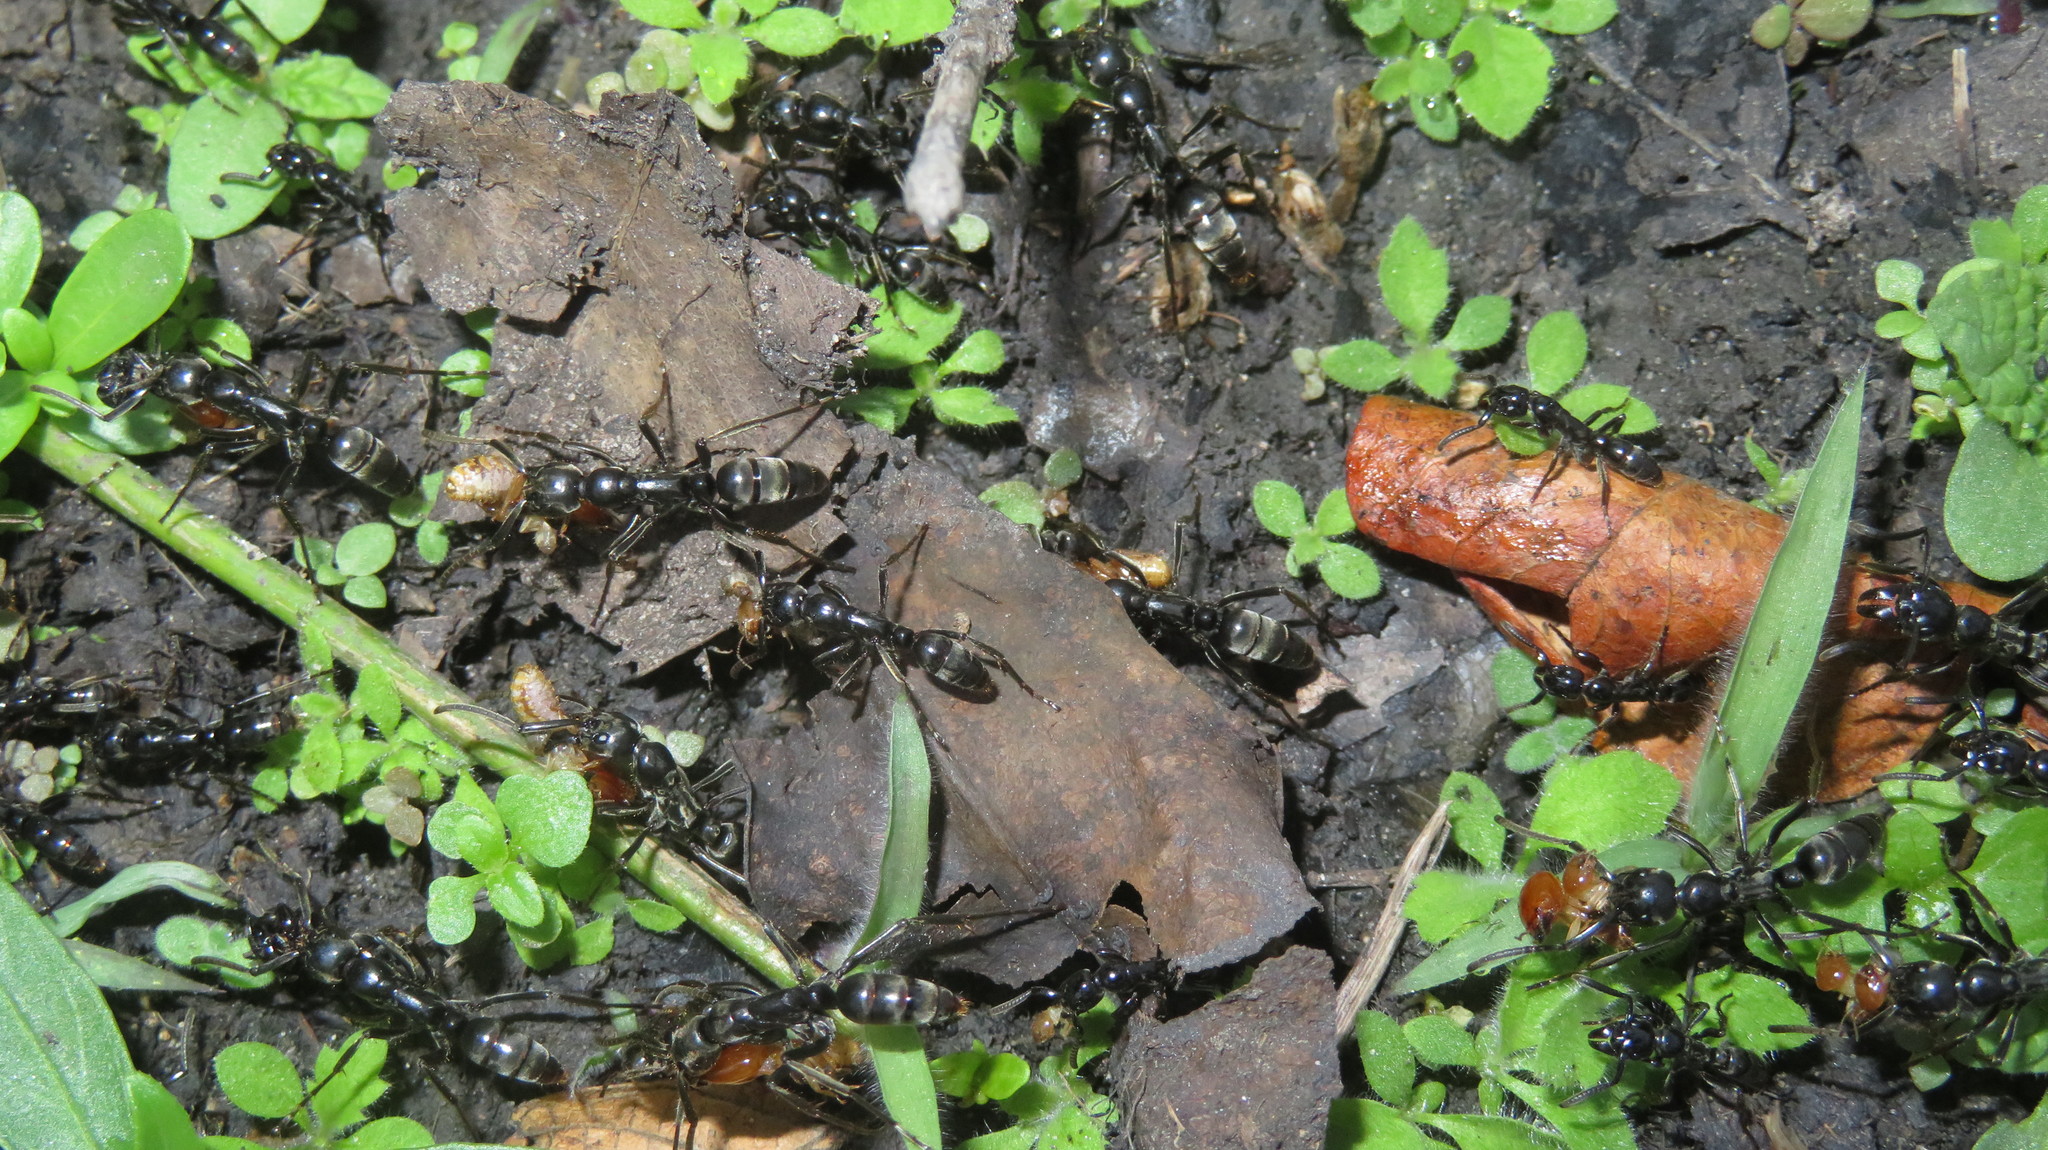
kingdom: Animalia
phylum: Arthropoda
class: Insecta
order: Hymenoptera
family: Formicidae
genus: Megaponera
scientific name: Megaponera analis
